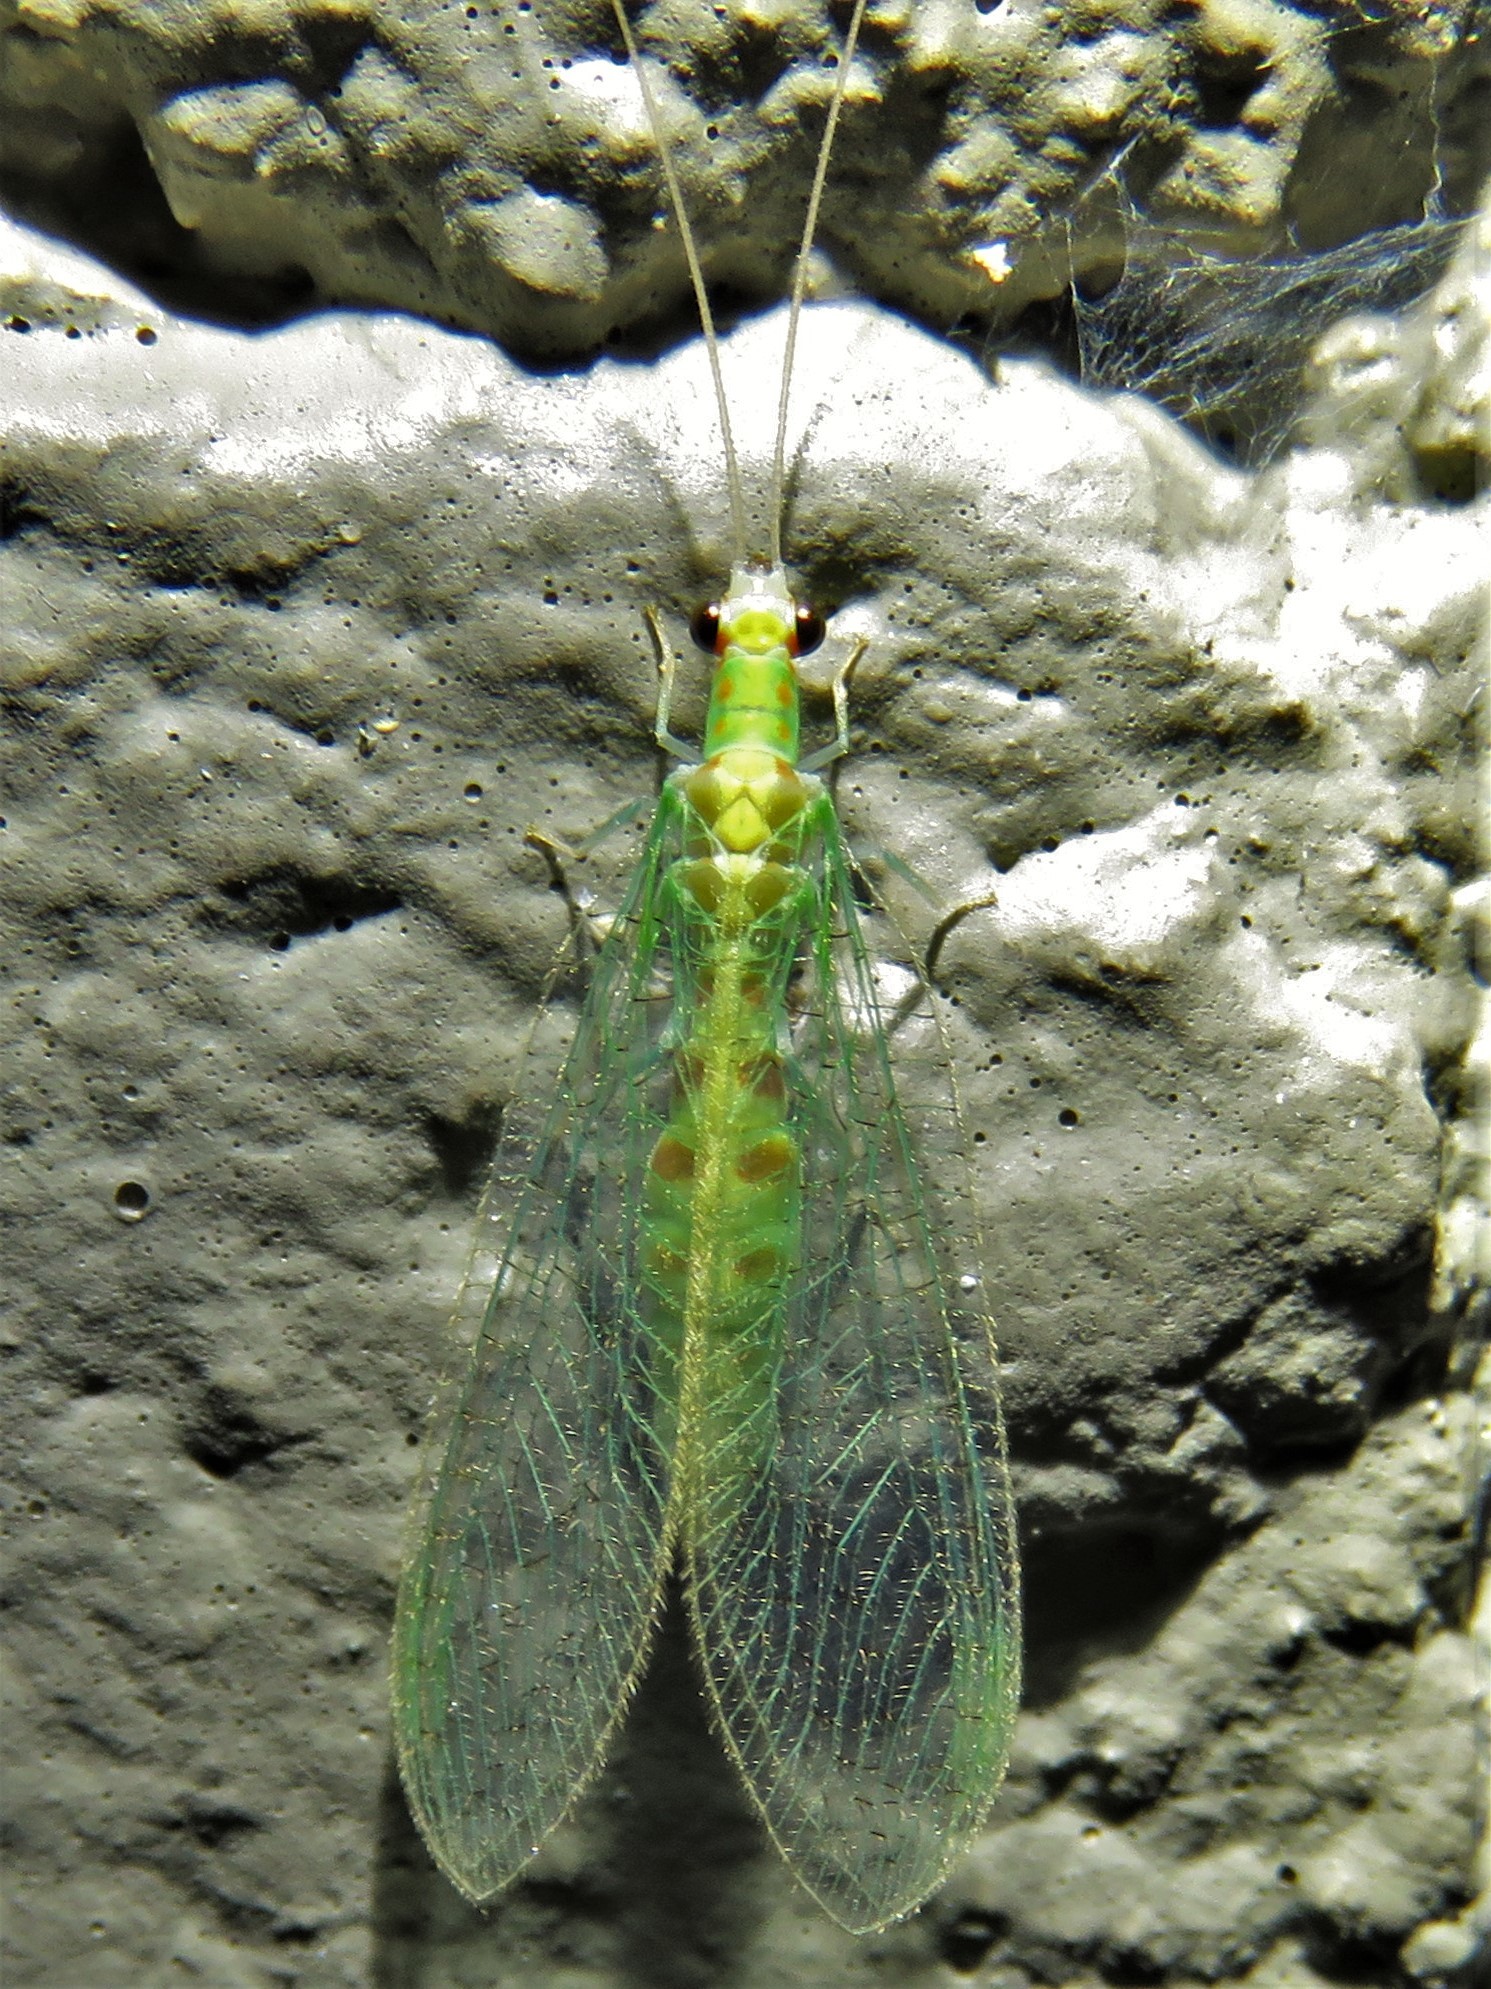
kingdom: Animalia
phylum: Arthropoda
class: Insecta
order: Neuroptera
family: Chrysopidae
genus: Chrysopa
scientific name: Chrysopa quadripunctata
